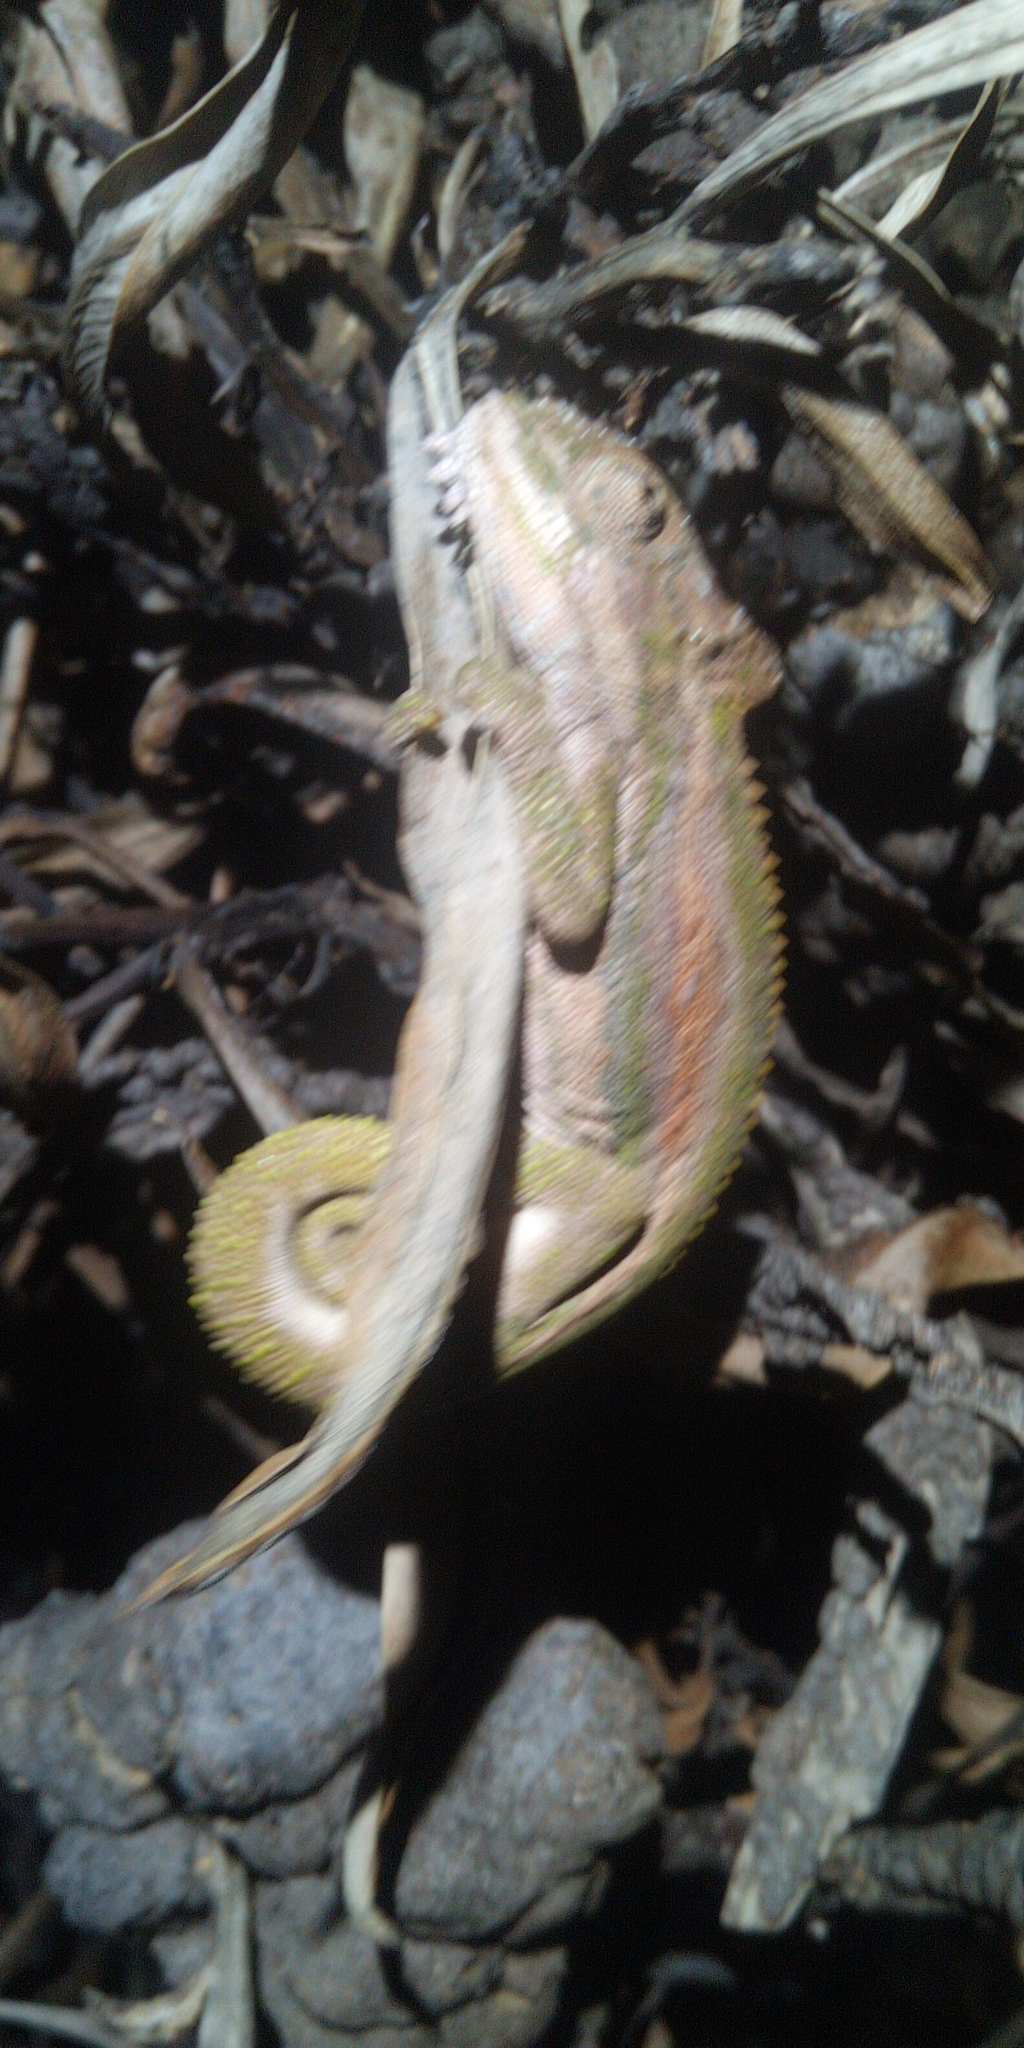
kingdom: Animalia
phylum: Chordata
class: Squamata
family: Chamaeleonidae
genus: Bradypodion
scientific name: Bradypodion pumilum
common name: Cape dwarf chameleon
